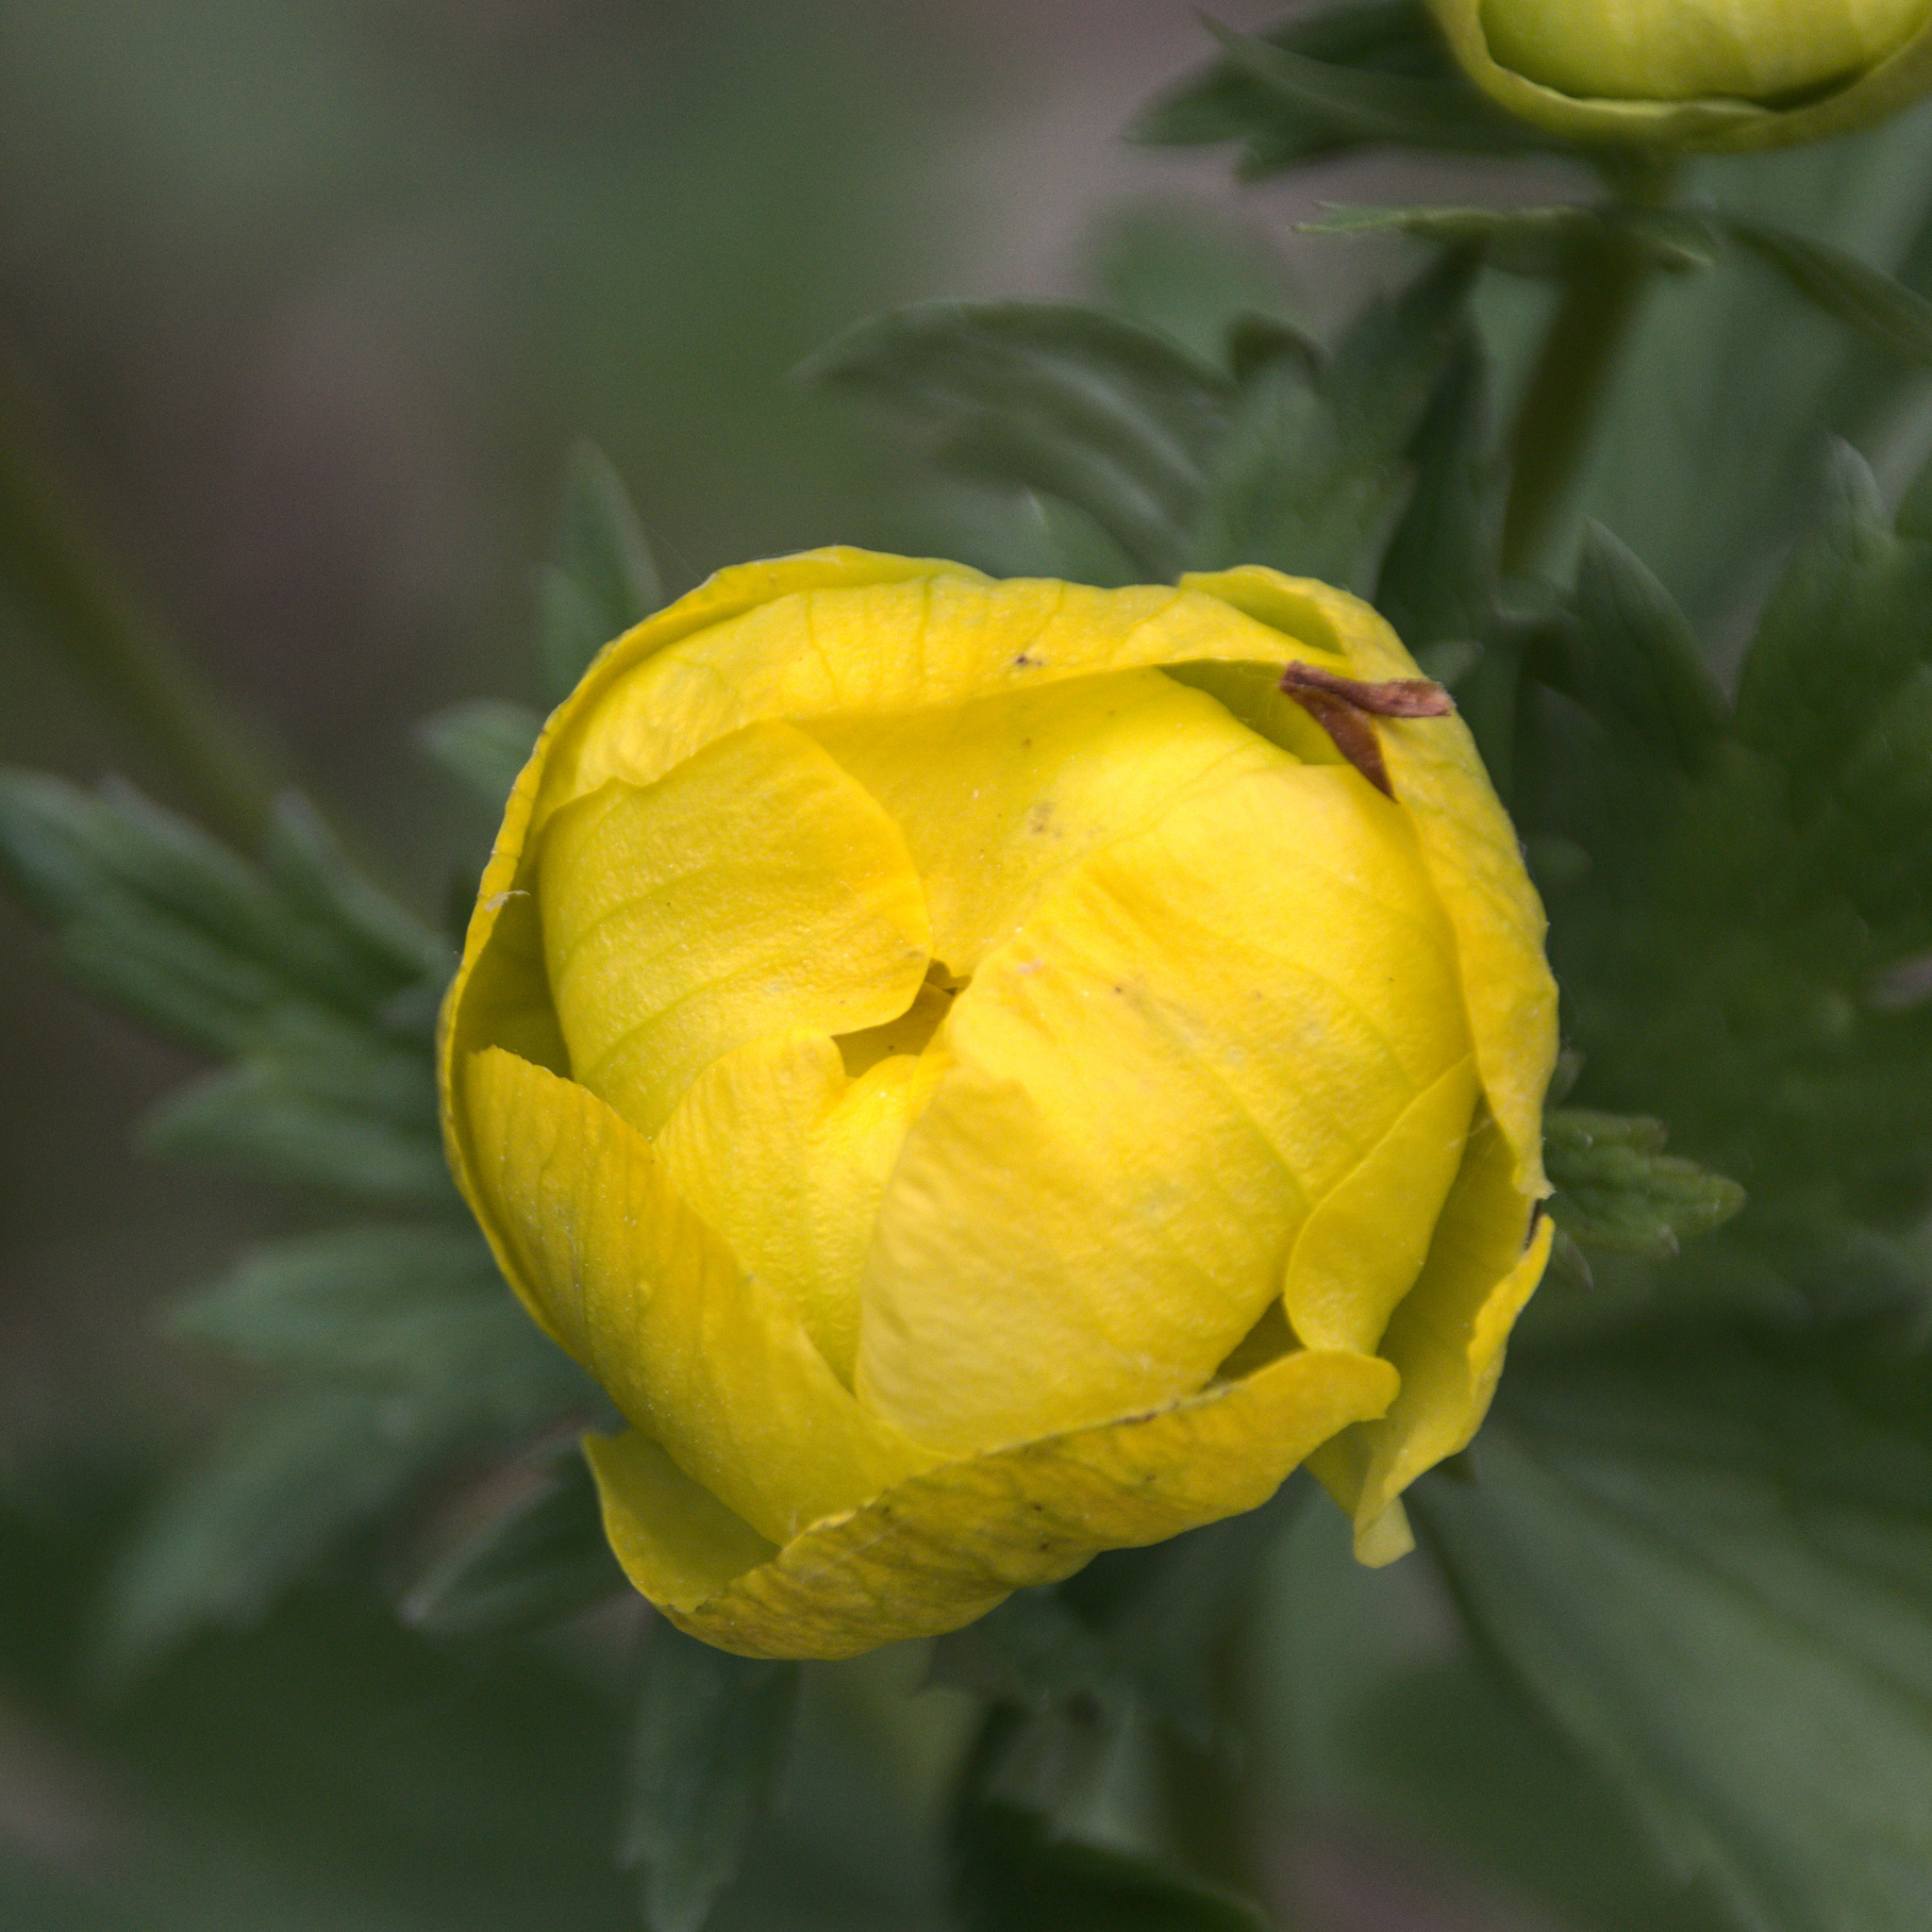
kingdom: Plantae
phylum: Tracheophyta
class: Magnoliopsida
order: Ranunculales
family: Ranunculaceae
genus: Trollius
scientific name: Trollius europaeus
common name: European globeflower
